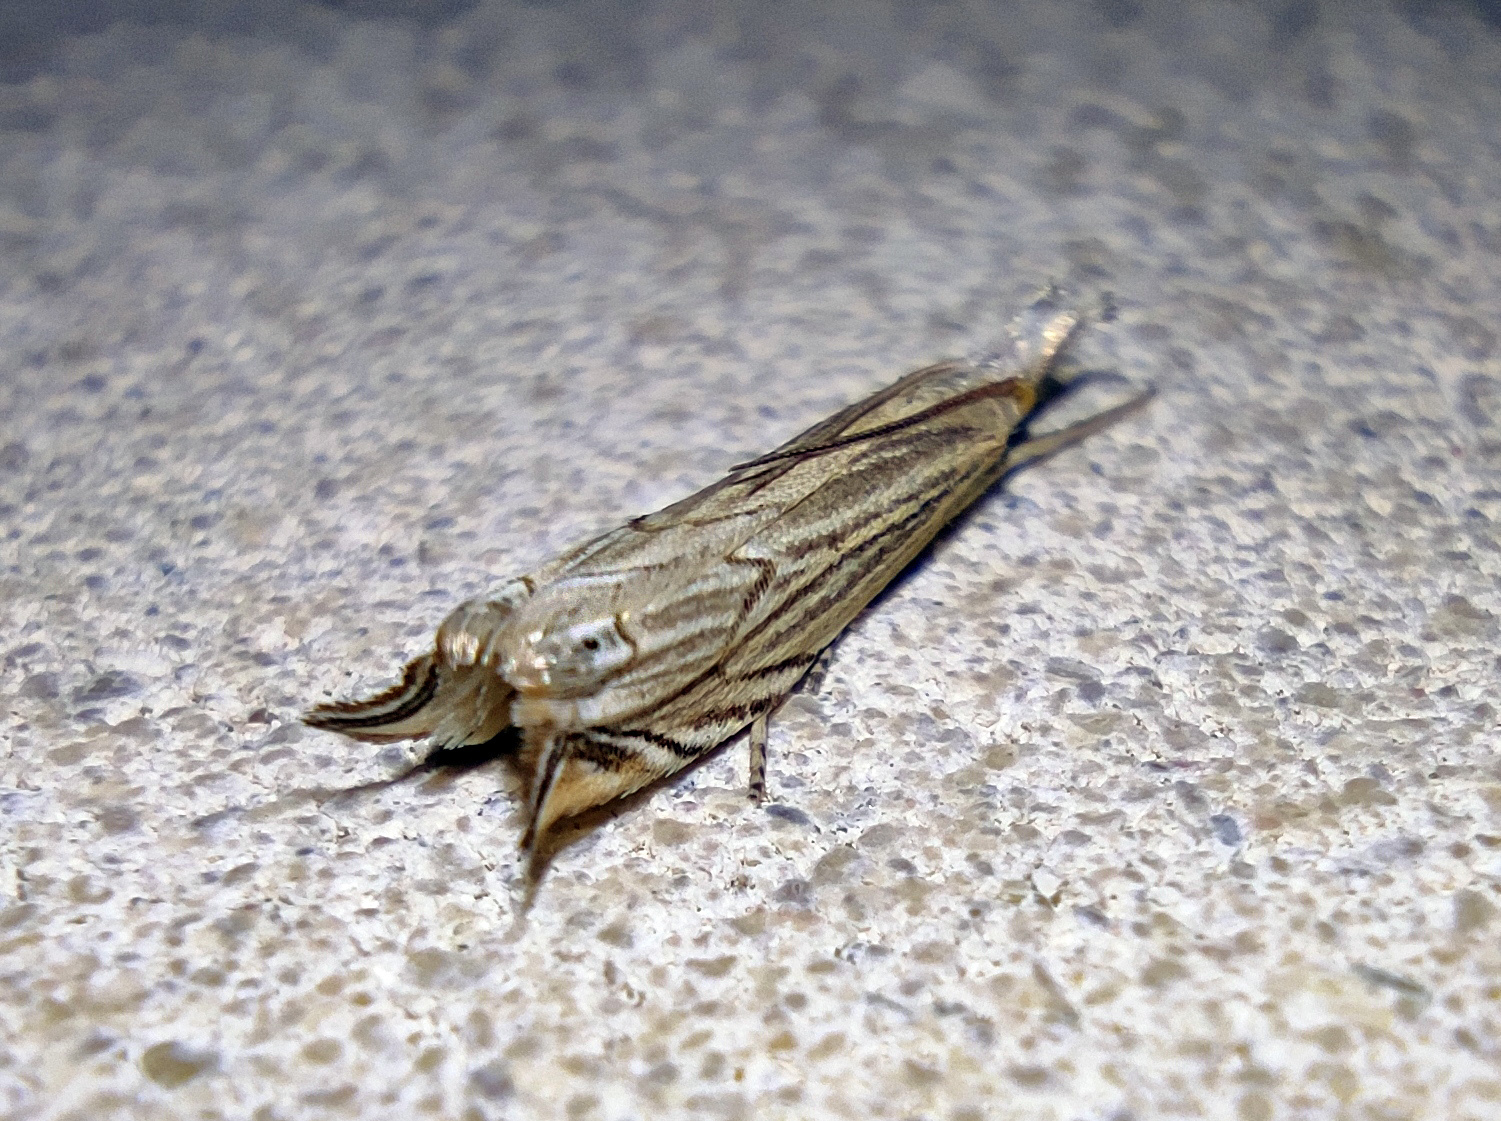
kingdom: Animalia
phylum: Arthropoda
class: Insecta
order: Lepidoptera
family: Crambidae
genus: Metacrambus
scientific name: Metacrambus carectellus
